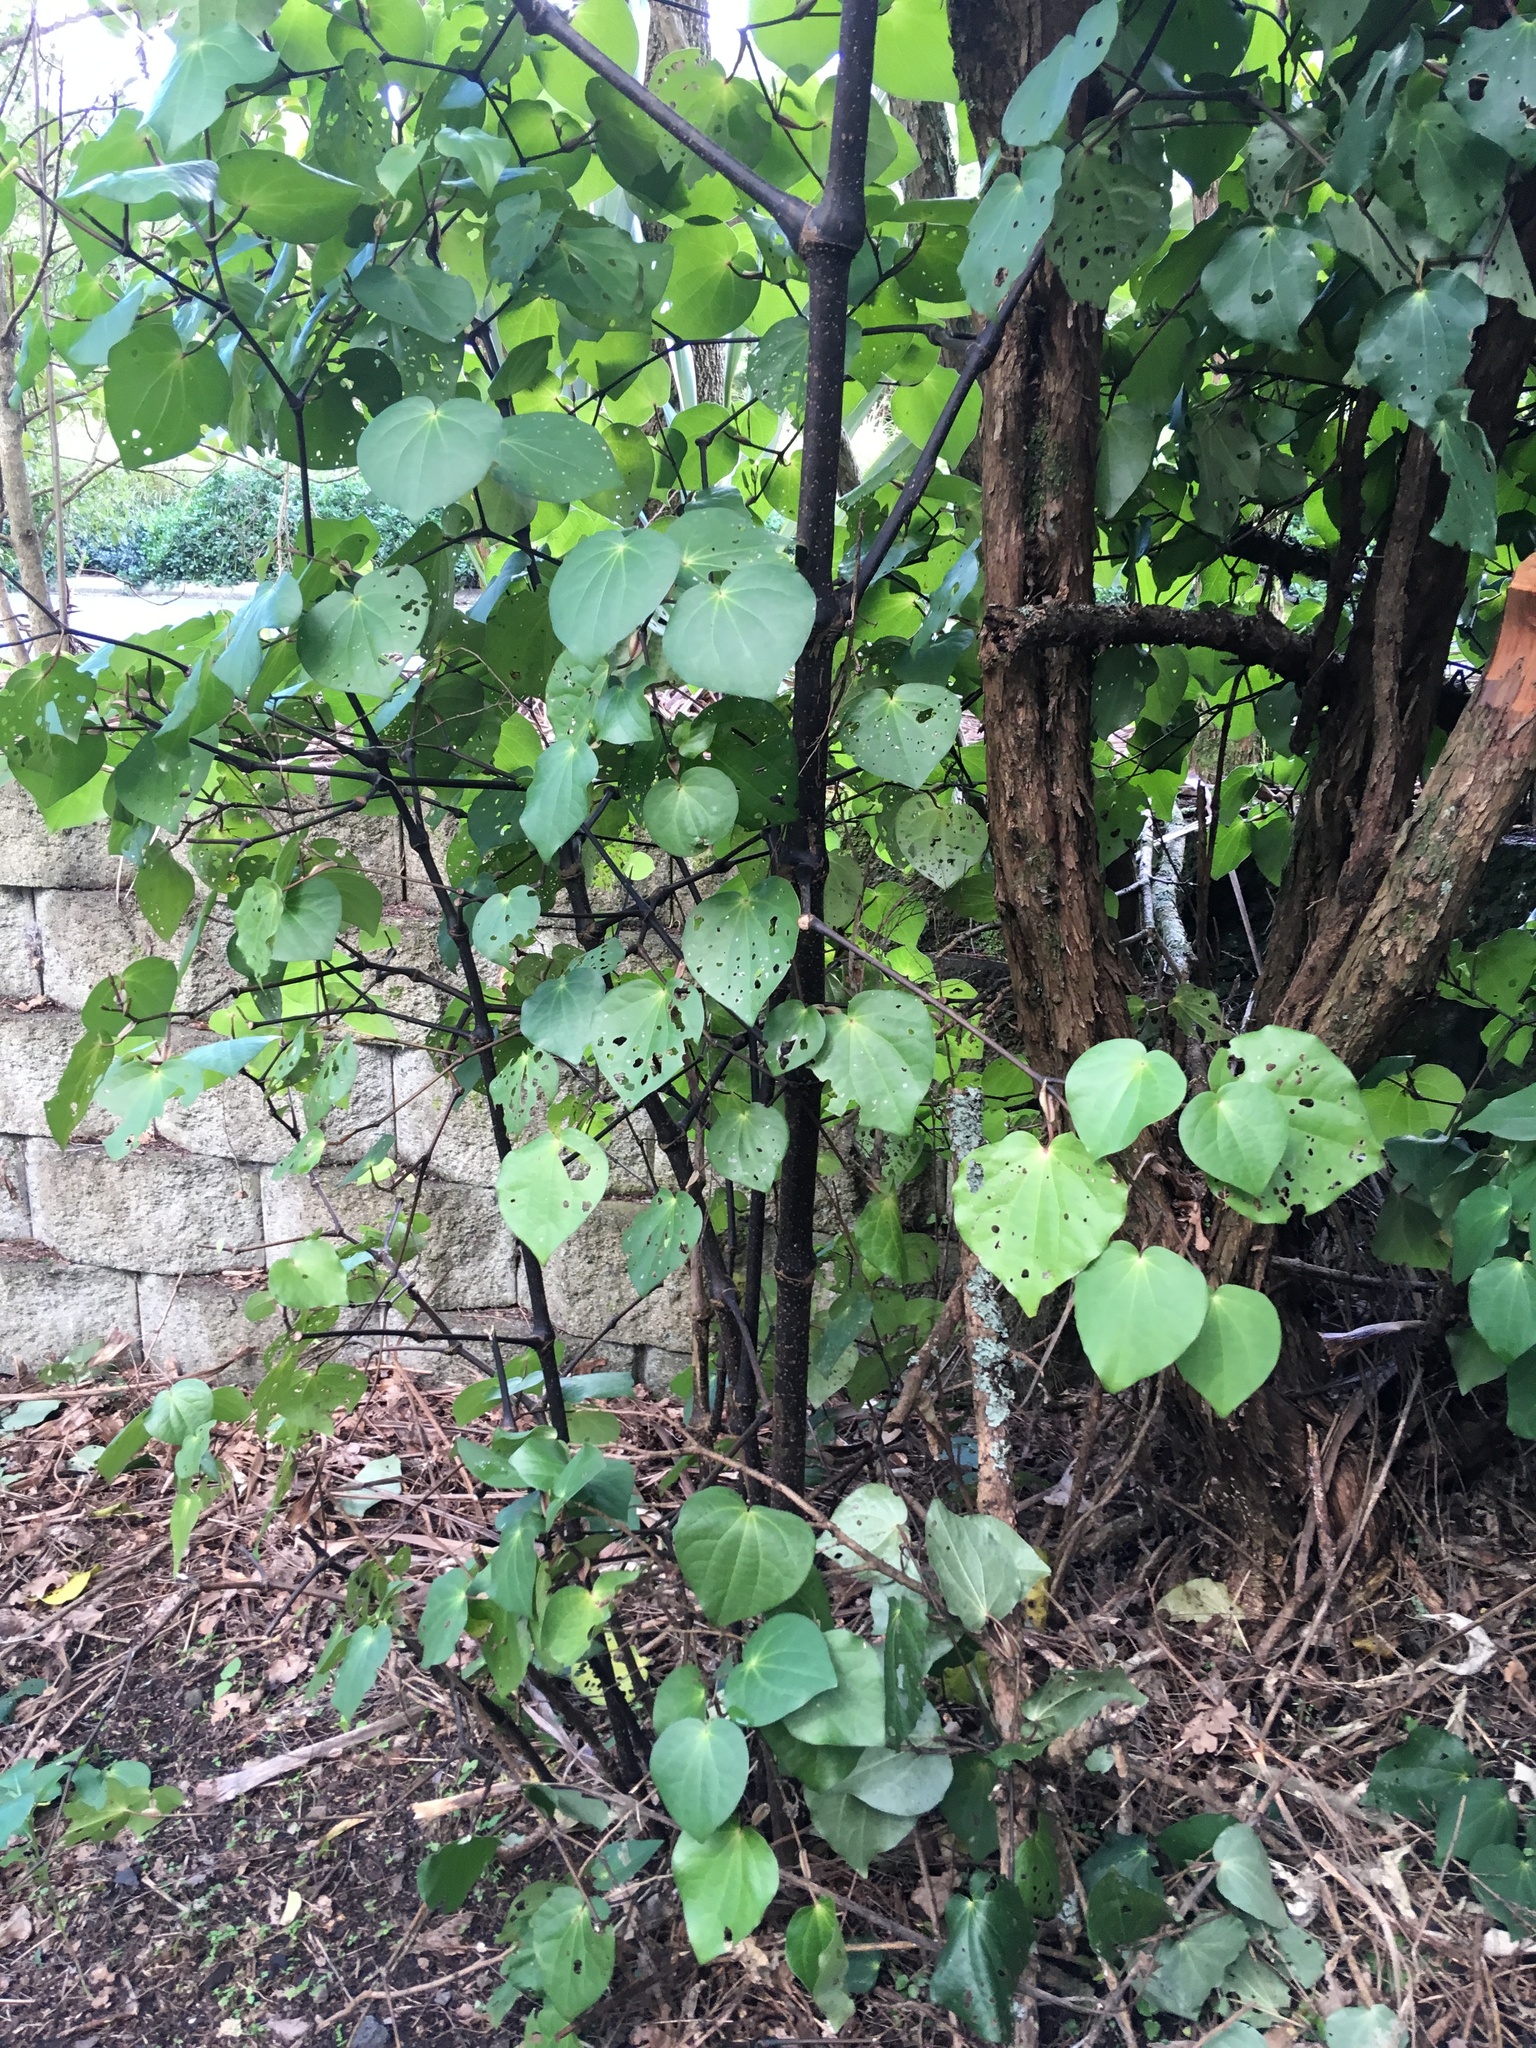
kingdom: Plantae
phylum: Tracheophyta
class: Magnoliopsida
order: Piperales
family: Piperaceae
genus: Macropiper
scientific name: Macropiper excelsum
